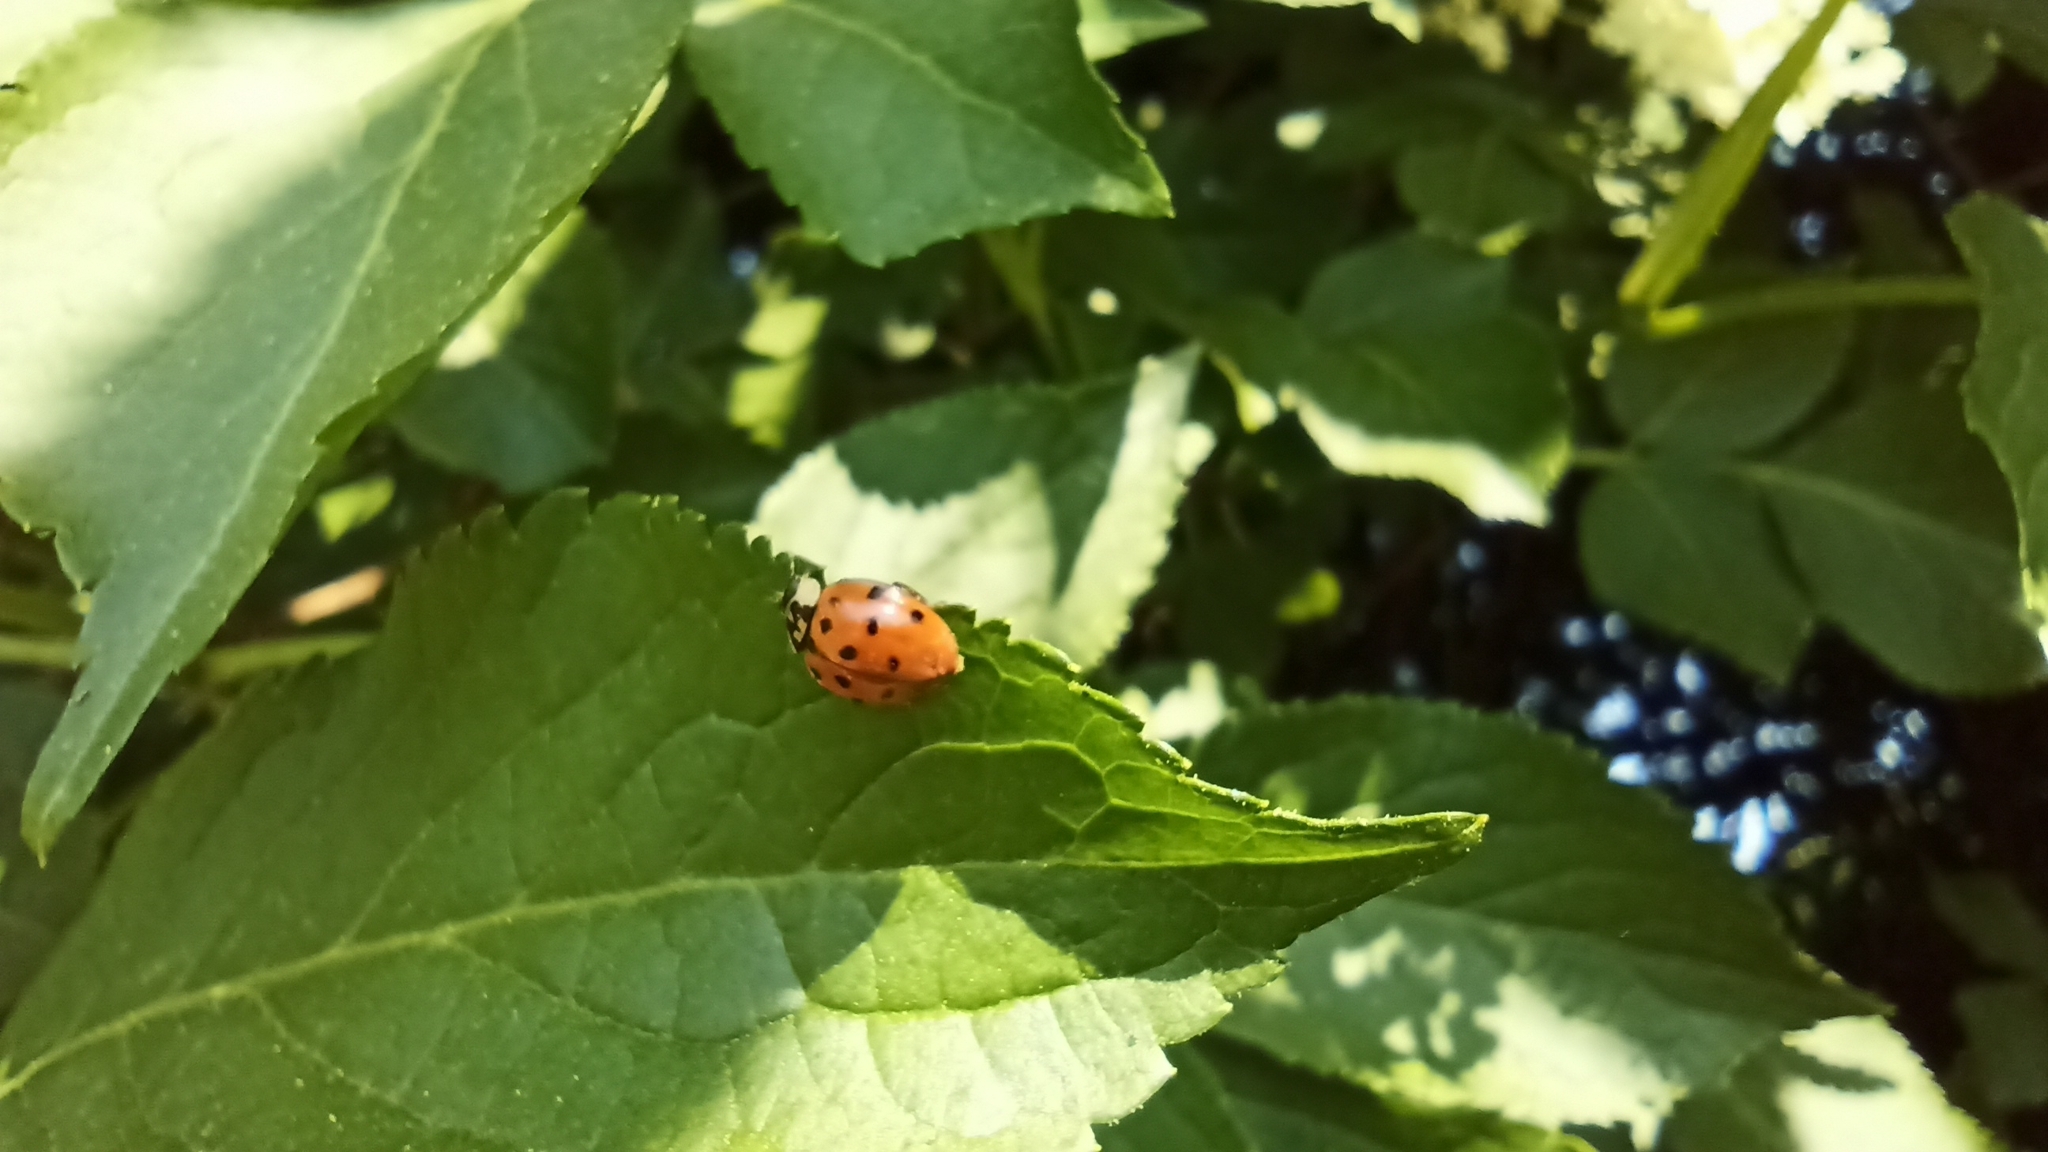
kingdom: Animalia
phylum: Arthropoda
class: Insecta
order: Coleoptera
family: Coccinellidae
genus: Harmonia
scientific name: Harmonia axyridis
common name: Harlequin ladybird
